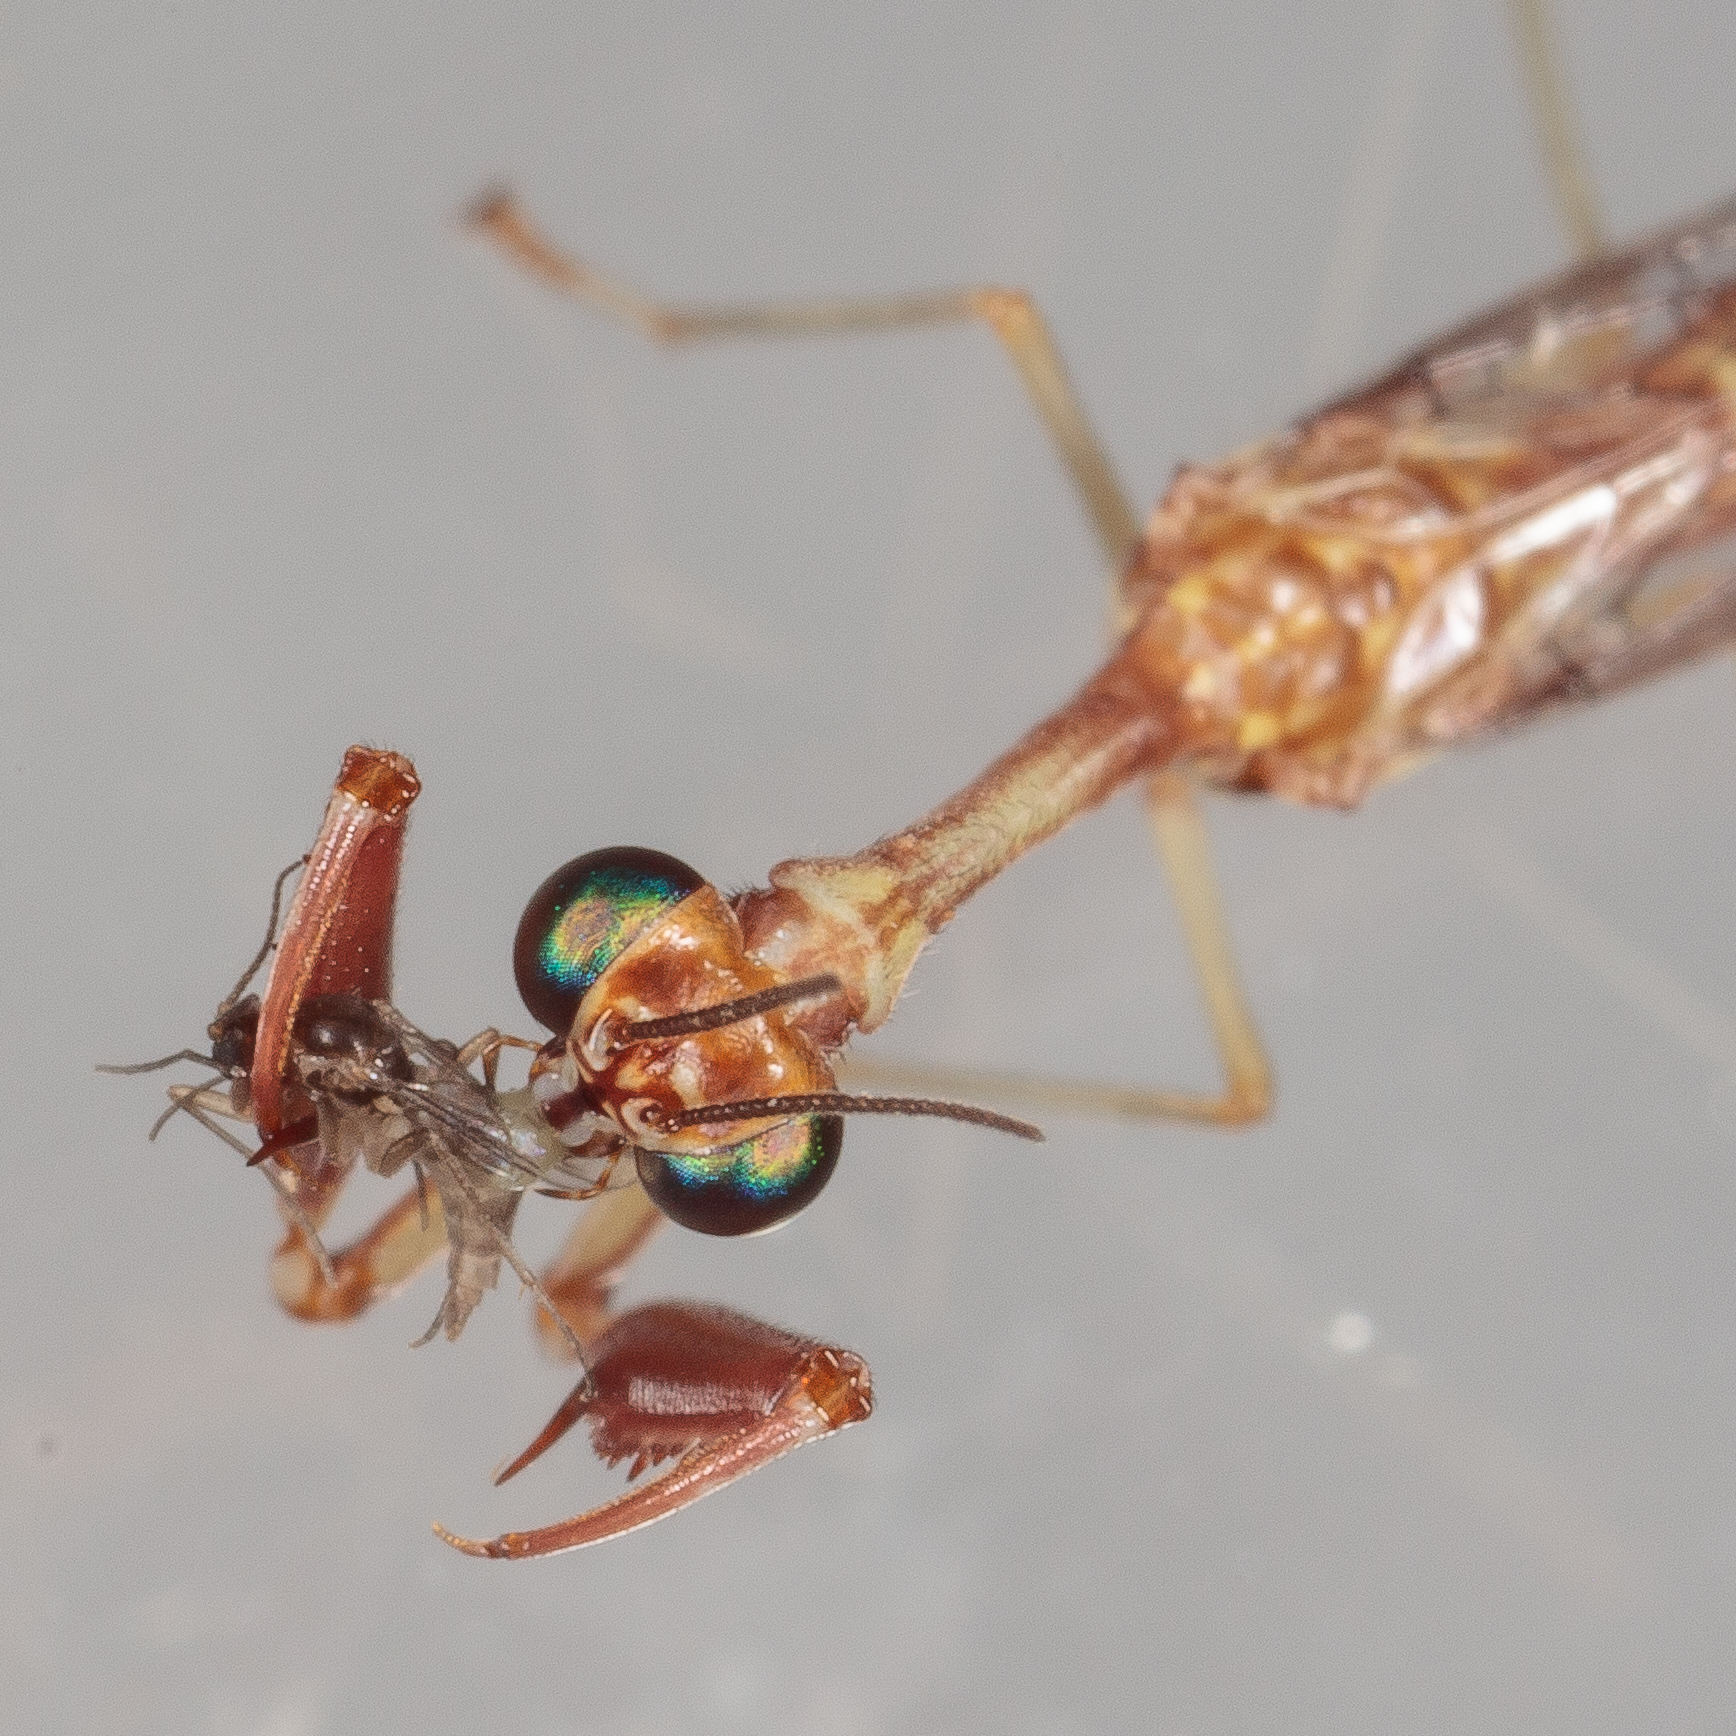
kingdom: Animalia
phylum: Arthropoda
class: Insecta
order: Neuroptera
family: Mantispidae
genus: Leptomantispa
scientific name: Leptomantispa pulchella
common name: Stevens's mantidfly
